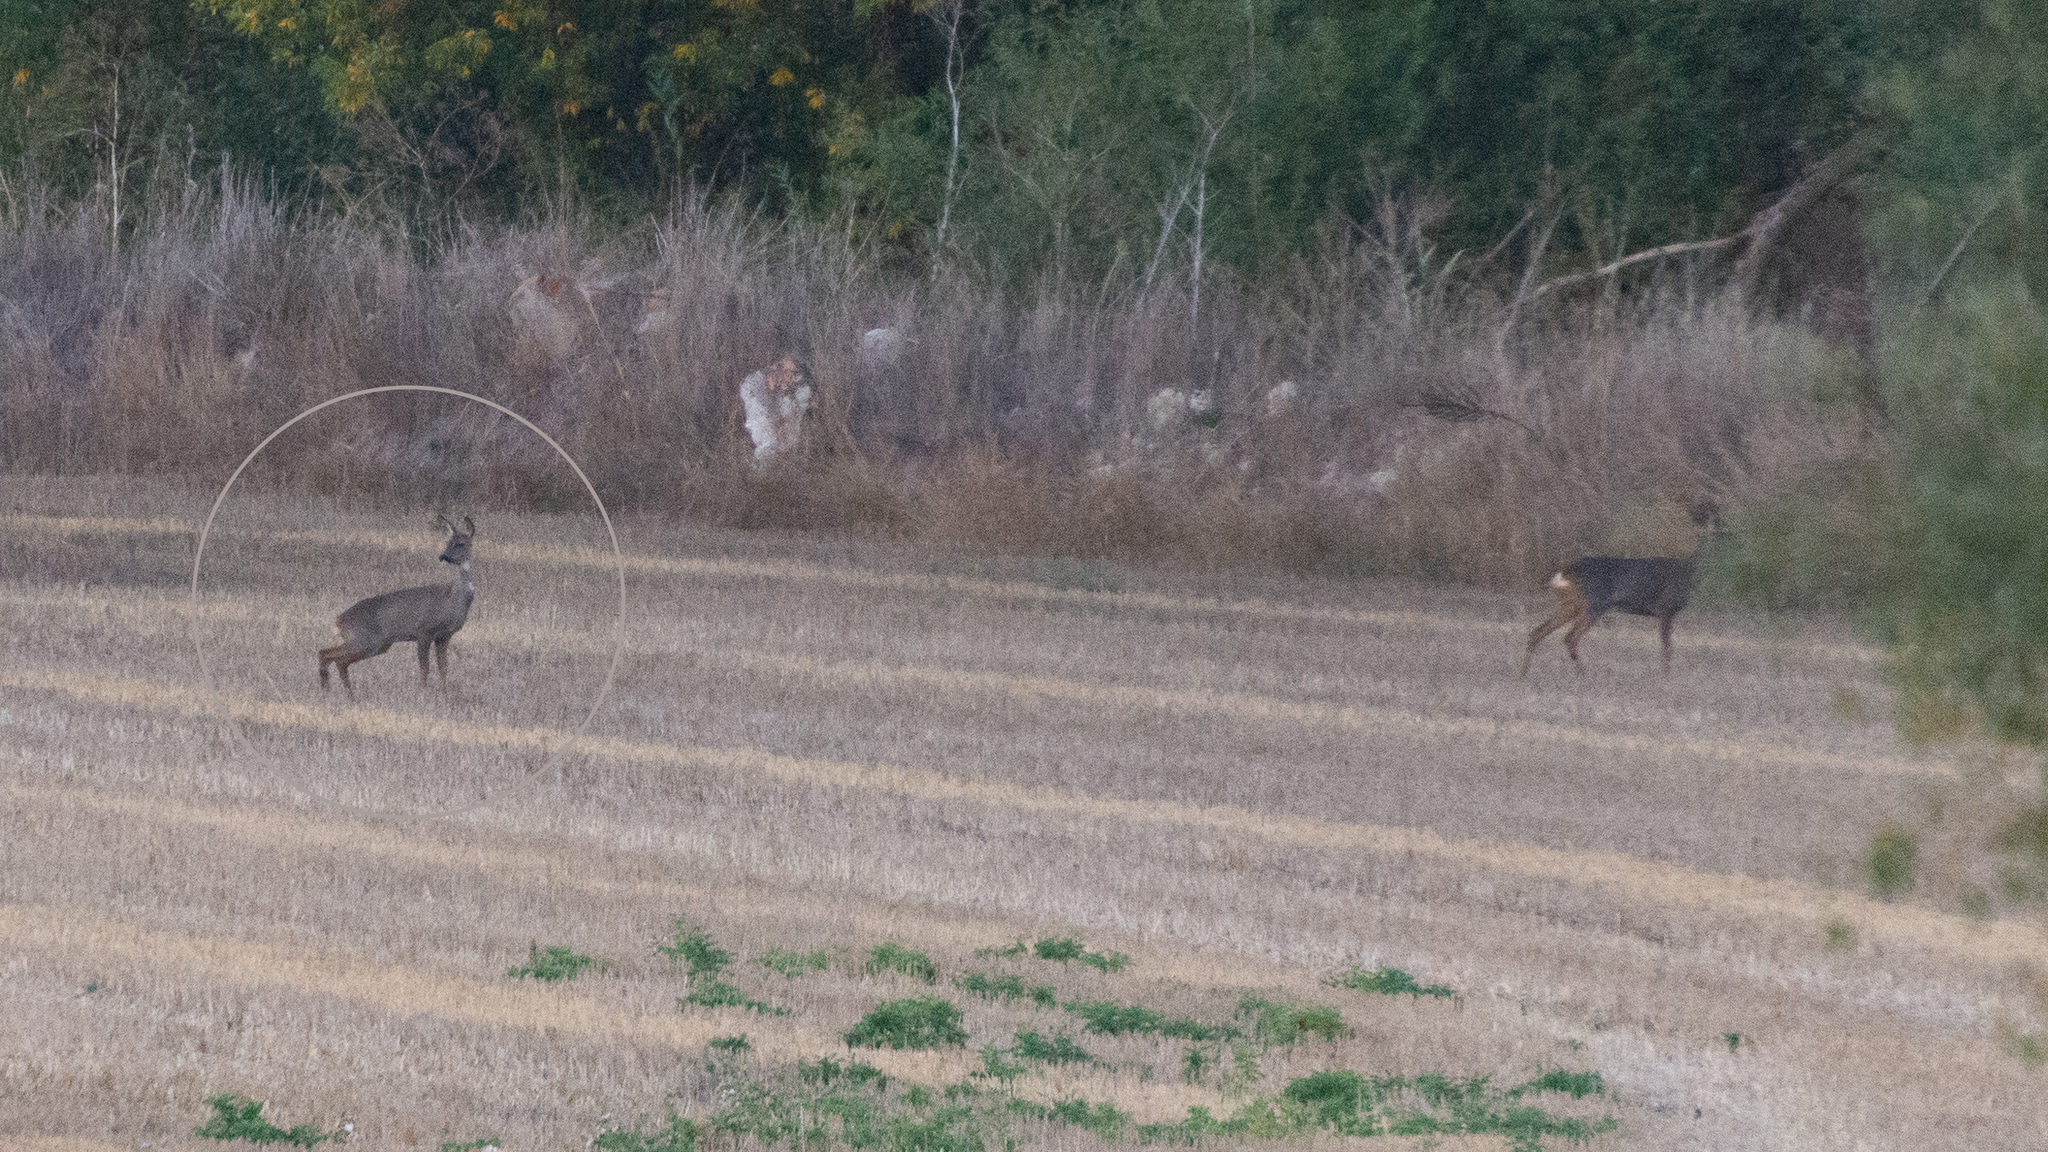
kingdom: Animalia
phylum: Chordata
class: Mammalia
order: Artiodactyla
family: Cervidae
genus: Capreolus
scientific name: Capreolus capreolus
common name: Western roe deer
